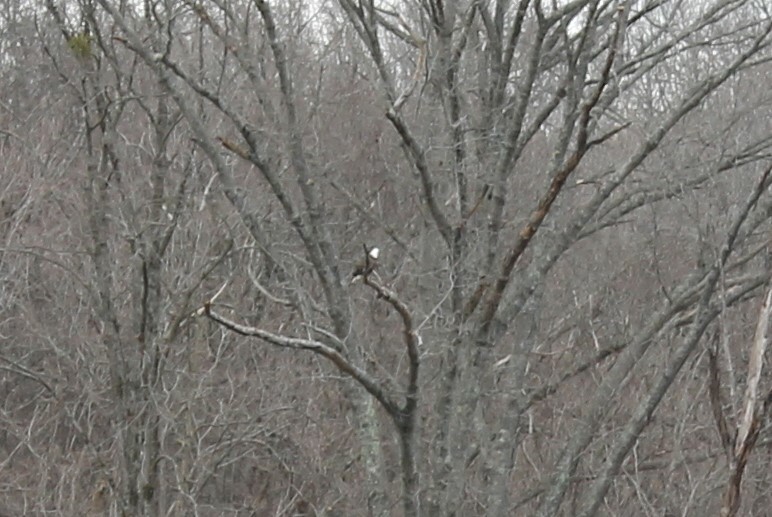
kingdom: Animalia
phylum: Chordata
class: Aves
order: Accipitriformes
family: Accipitridae
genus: Haliaeetus
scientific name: Haliaeetus leucocephalus
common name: Bald eagle
